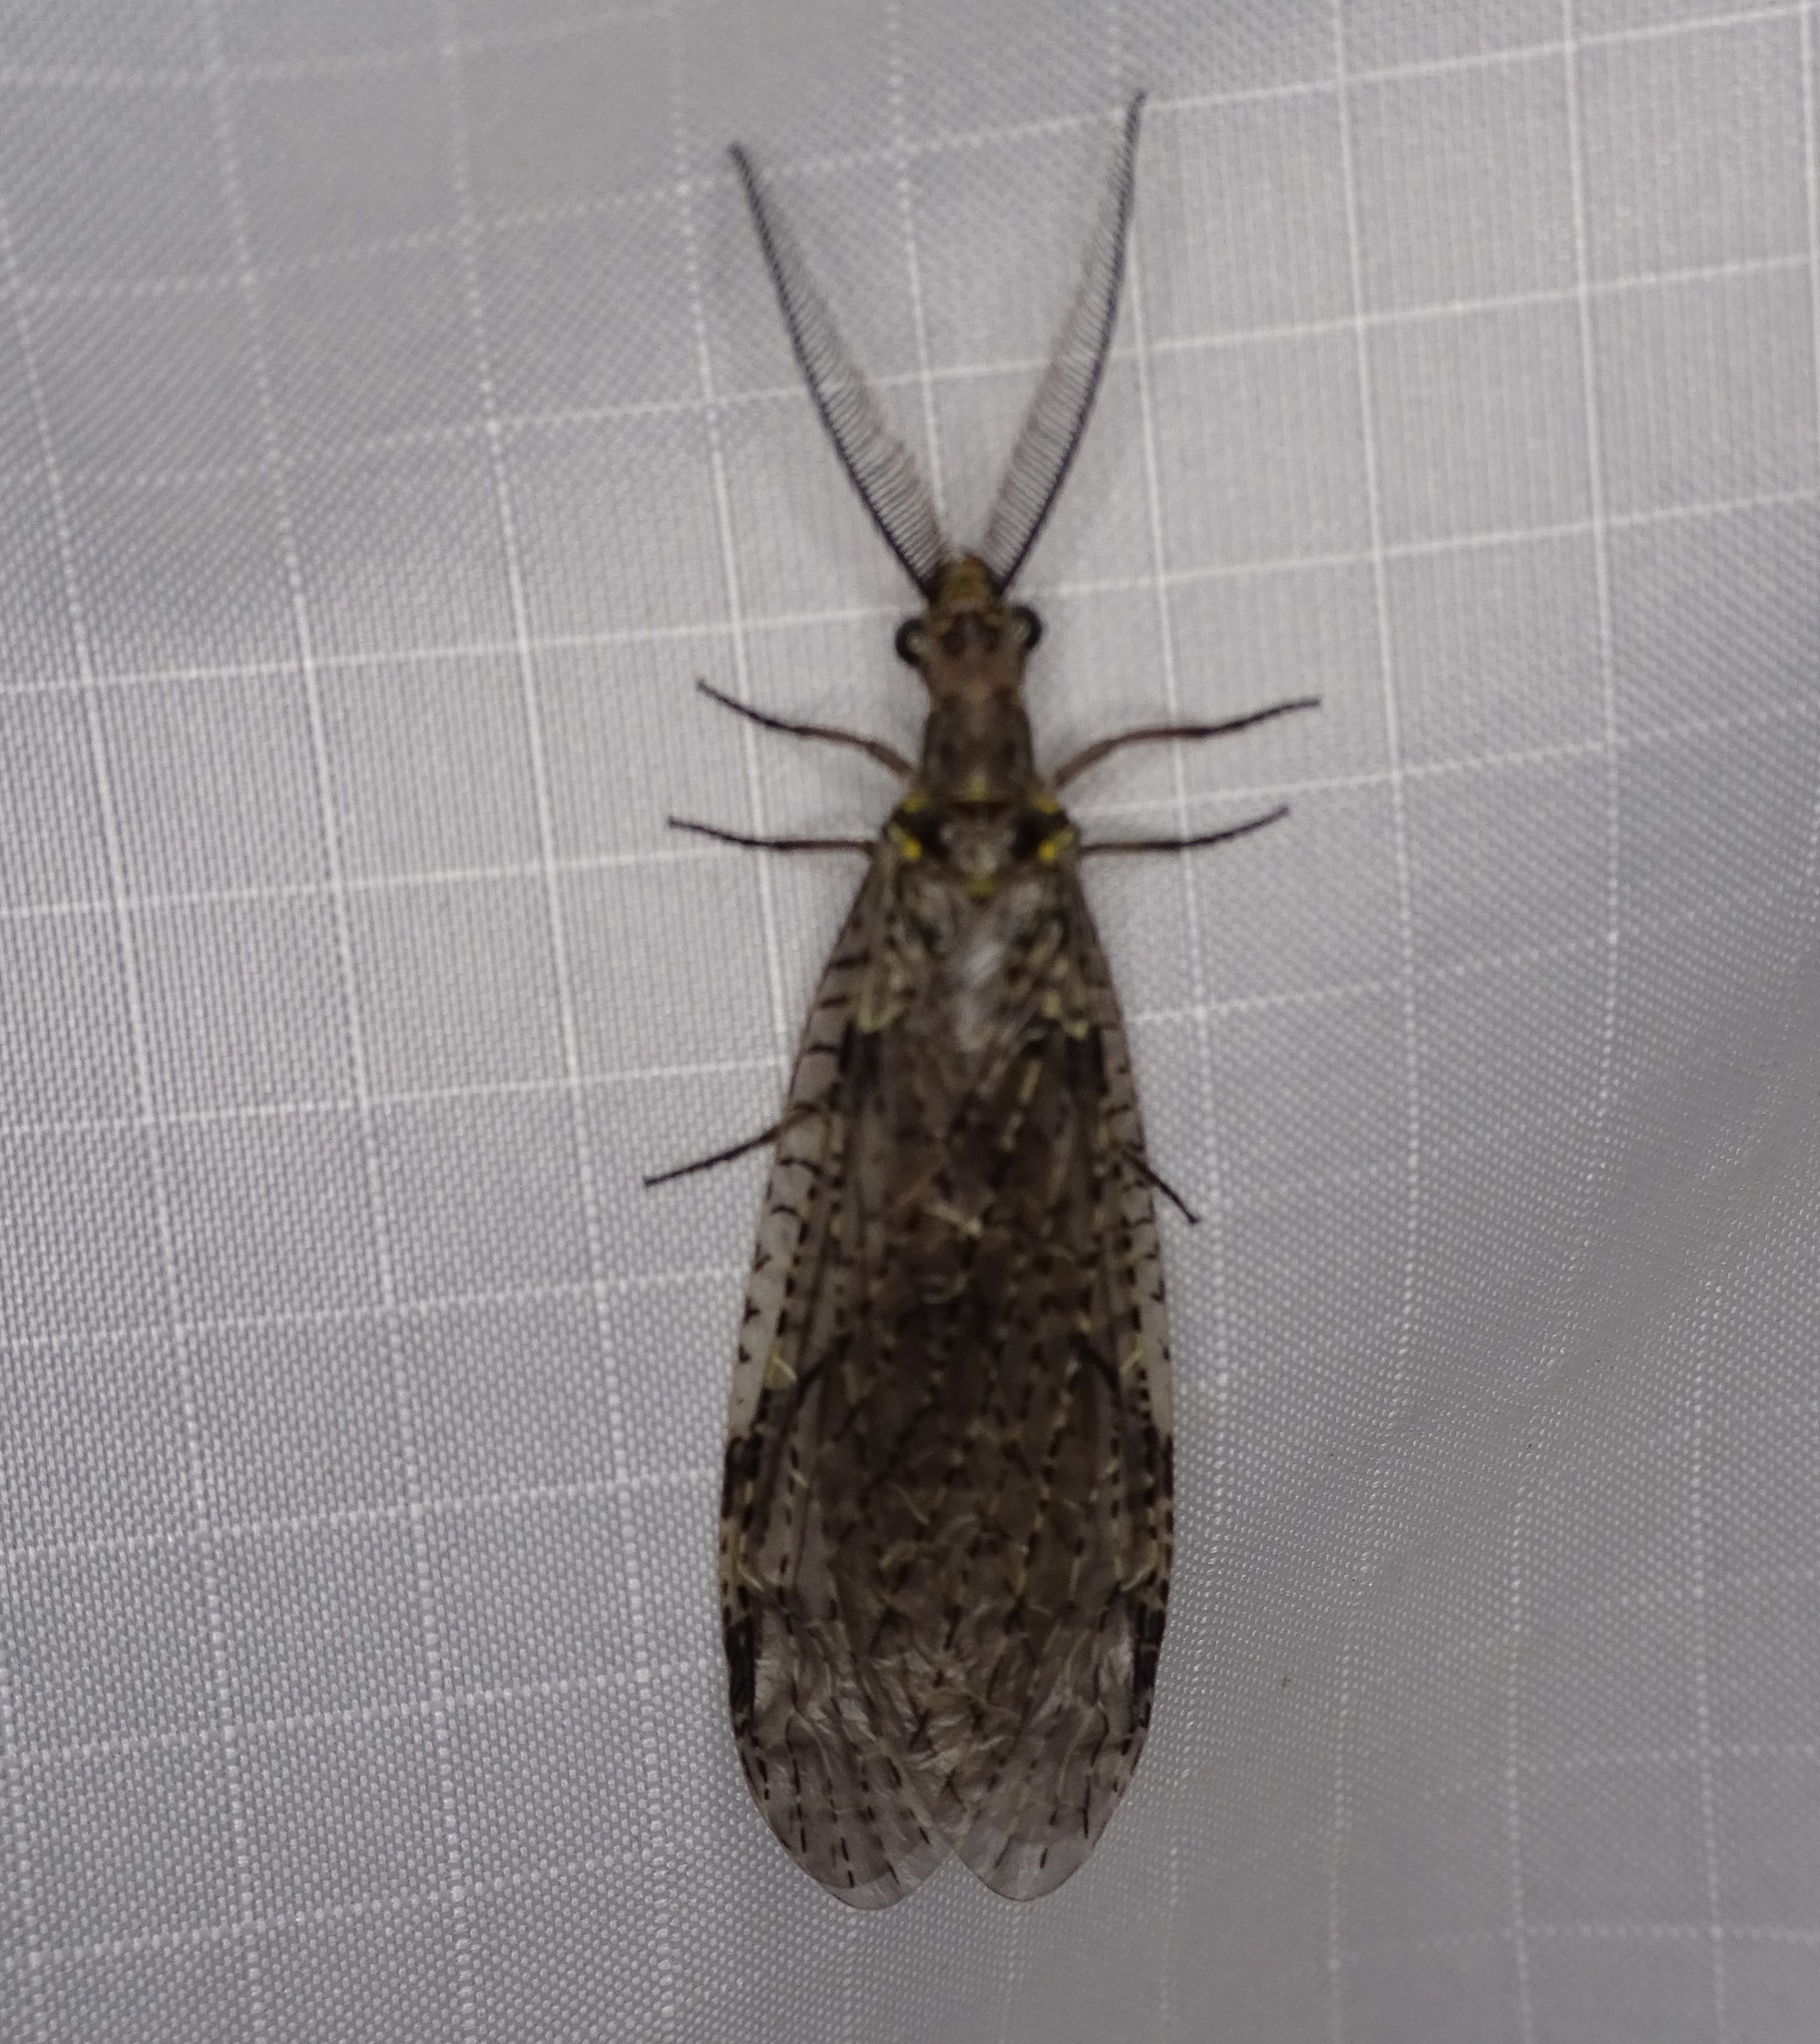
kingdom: Animalia
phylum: Arthropoda
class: Insecta
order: Megaloptera
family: Corydalidae
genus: Chauliodes
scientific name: Chauliodes rastricornis
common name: Spring fishfly
